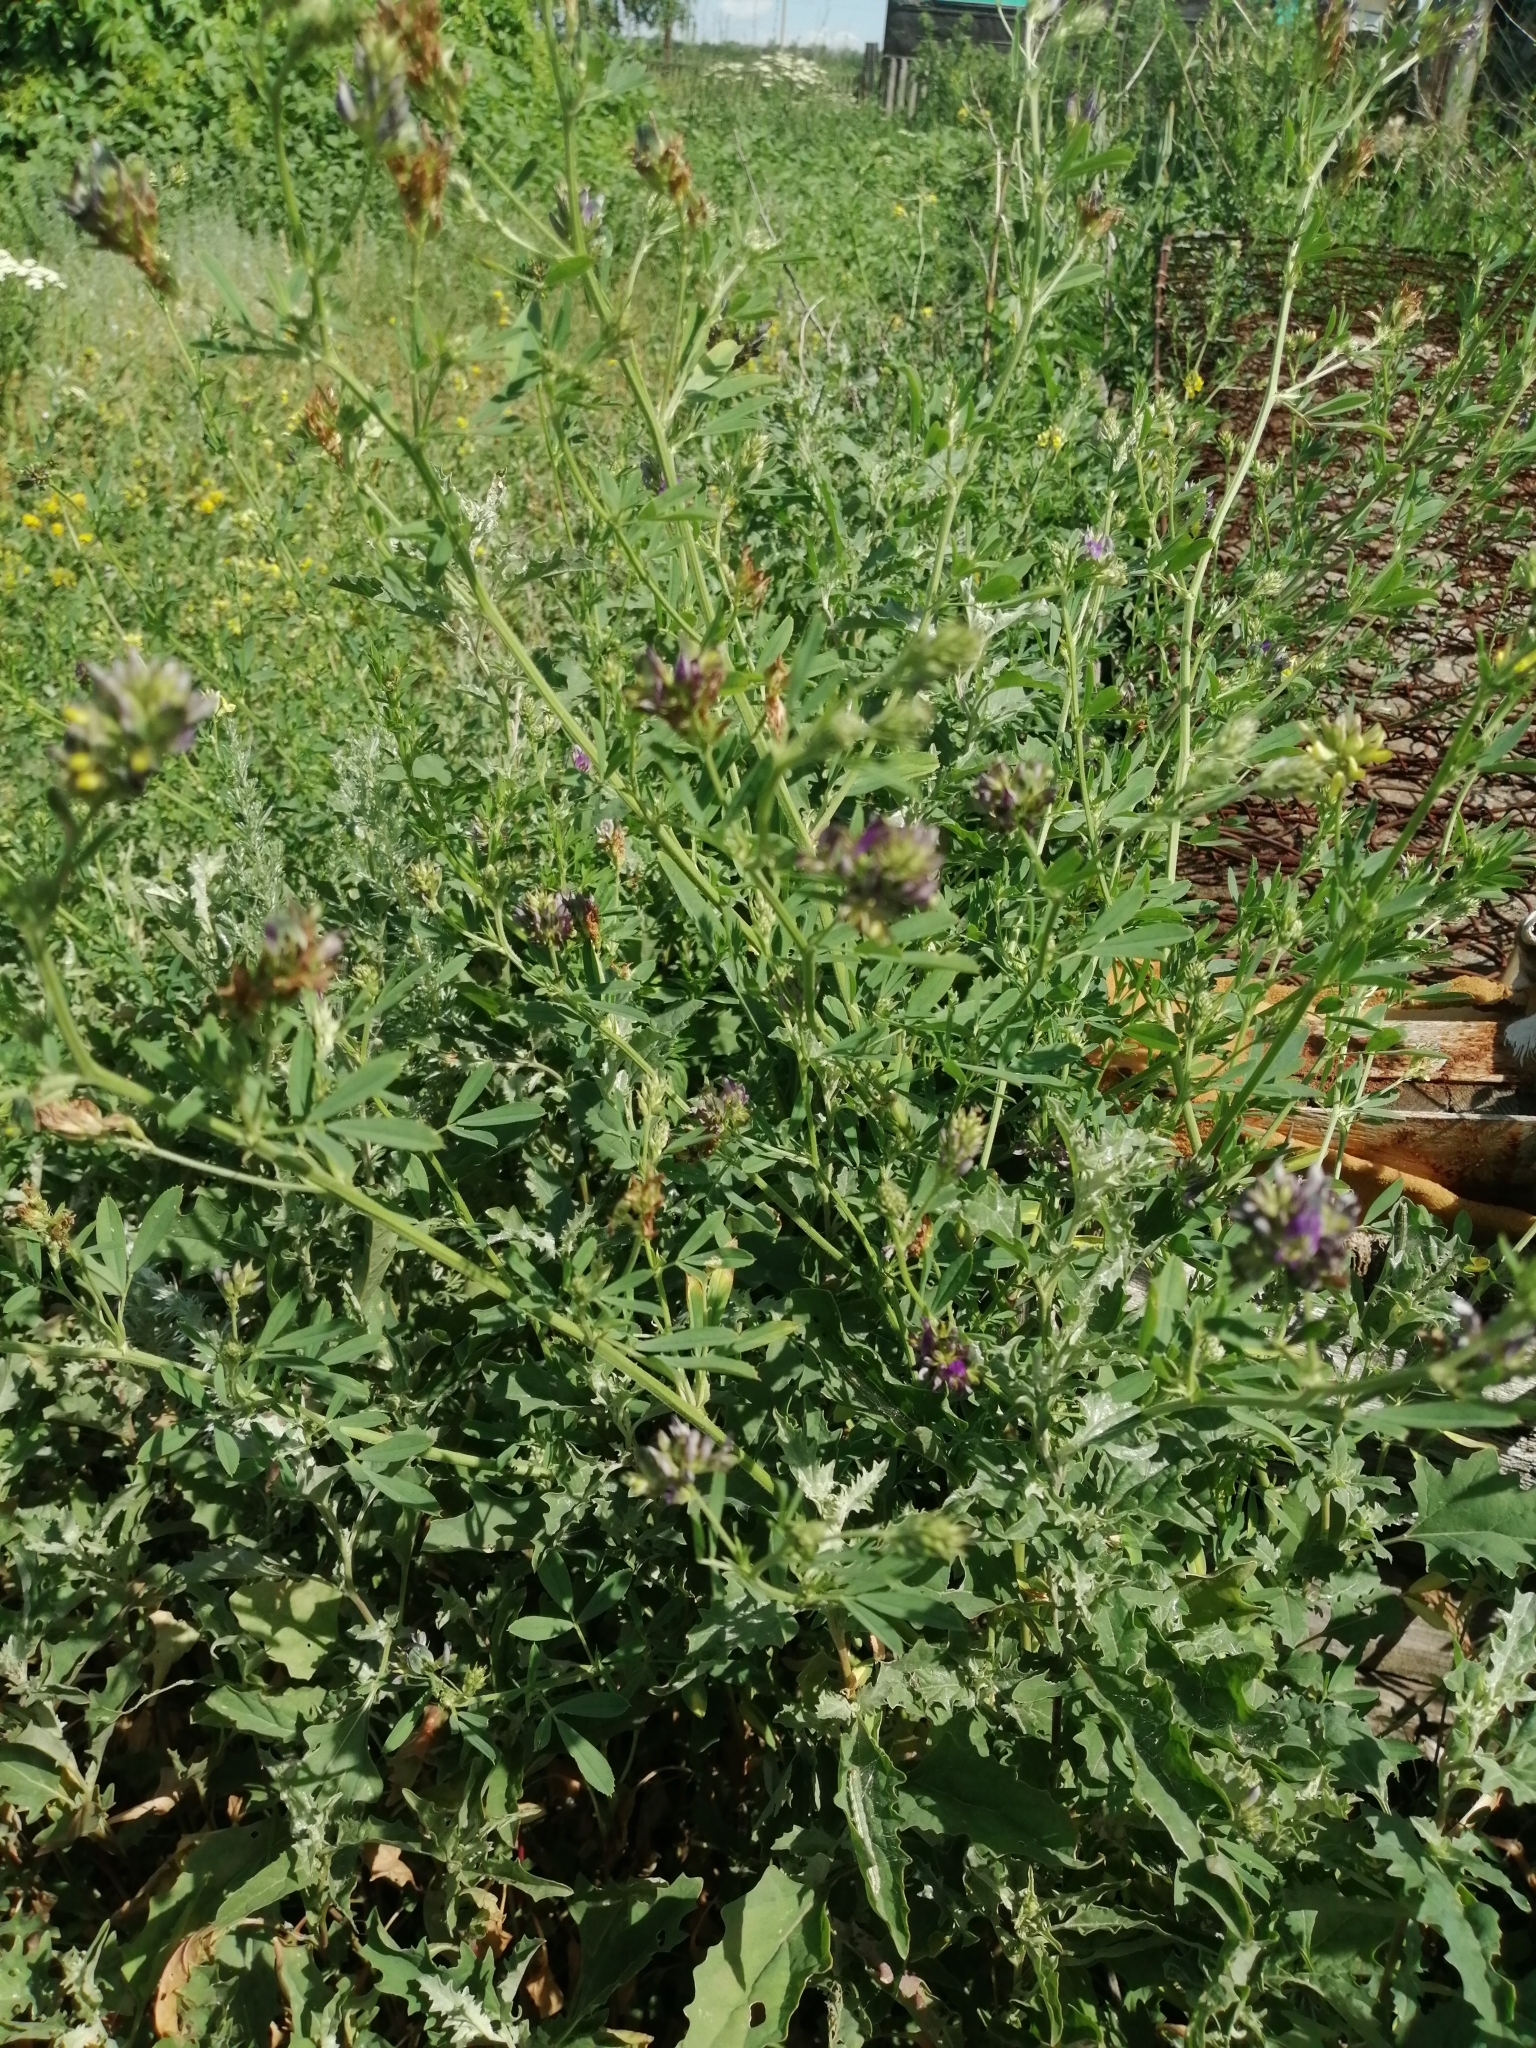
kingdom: Plantae
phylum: Tracheophyta
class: Magnoliopsida
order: Fabales
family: Fabaceae
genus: Medicago
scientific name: Medicago varia
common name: Sand lucerne
